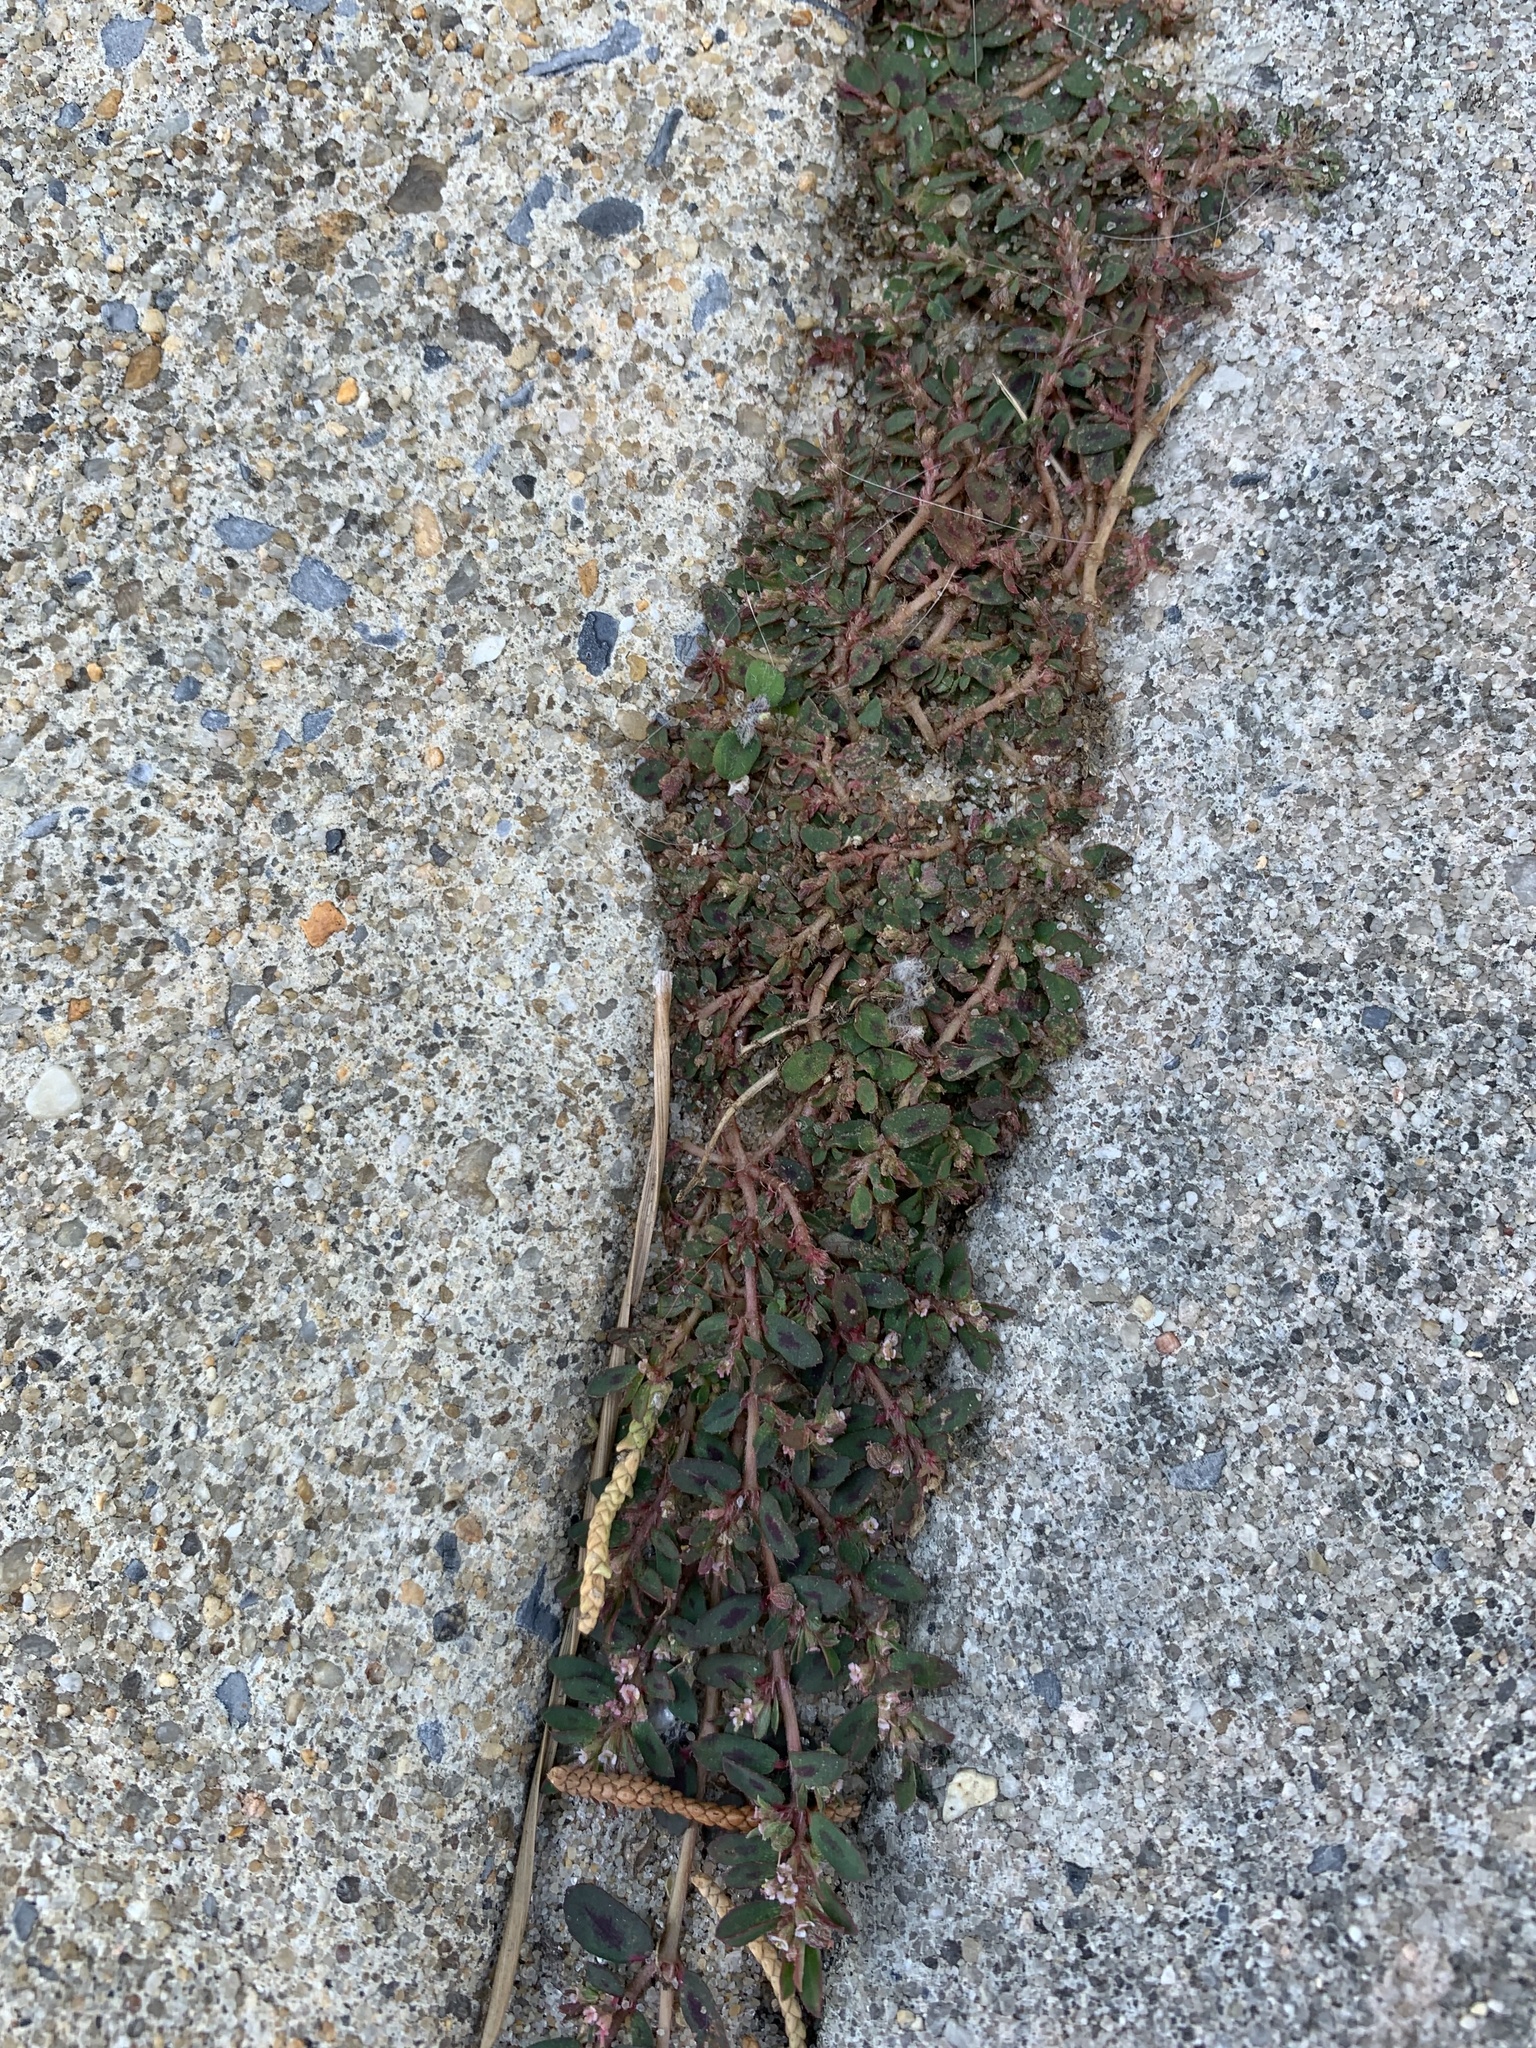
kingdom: Plantae
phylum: Tracheophyta
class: Magnoliopsida
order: Malpighiales
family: Euphorbiaceae
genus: Euphorbia
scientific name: Euphorbia maculata
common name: Spotted spurge
